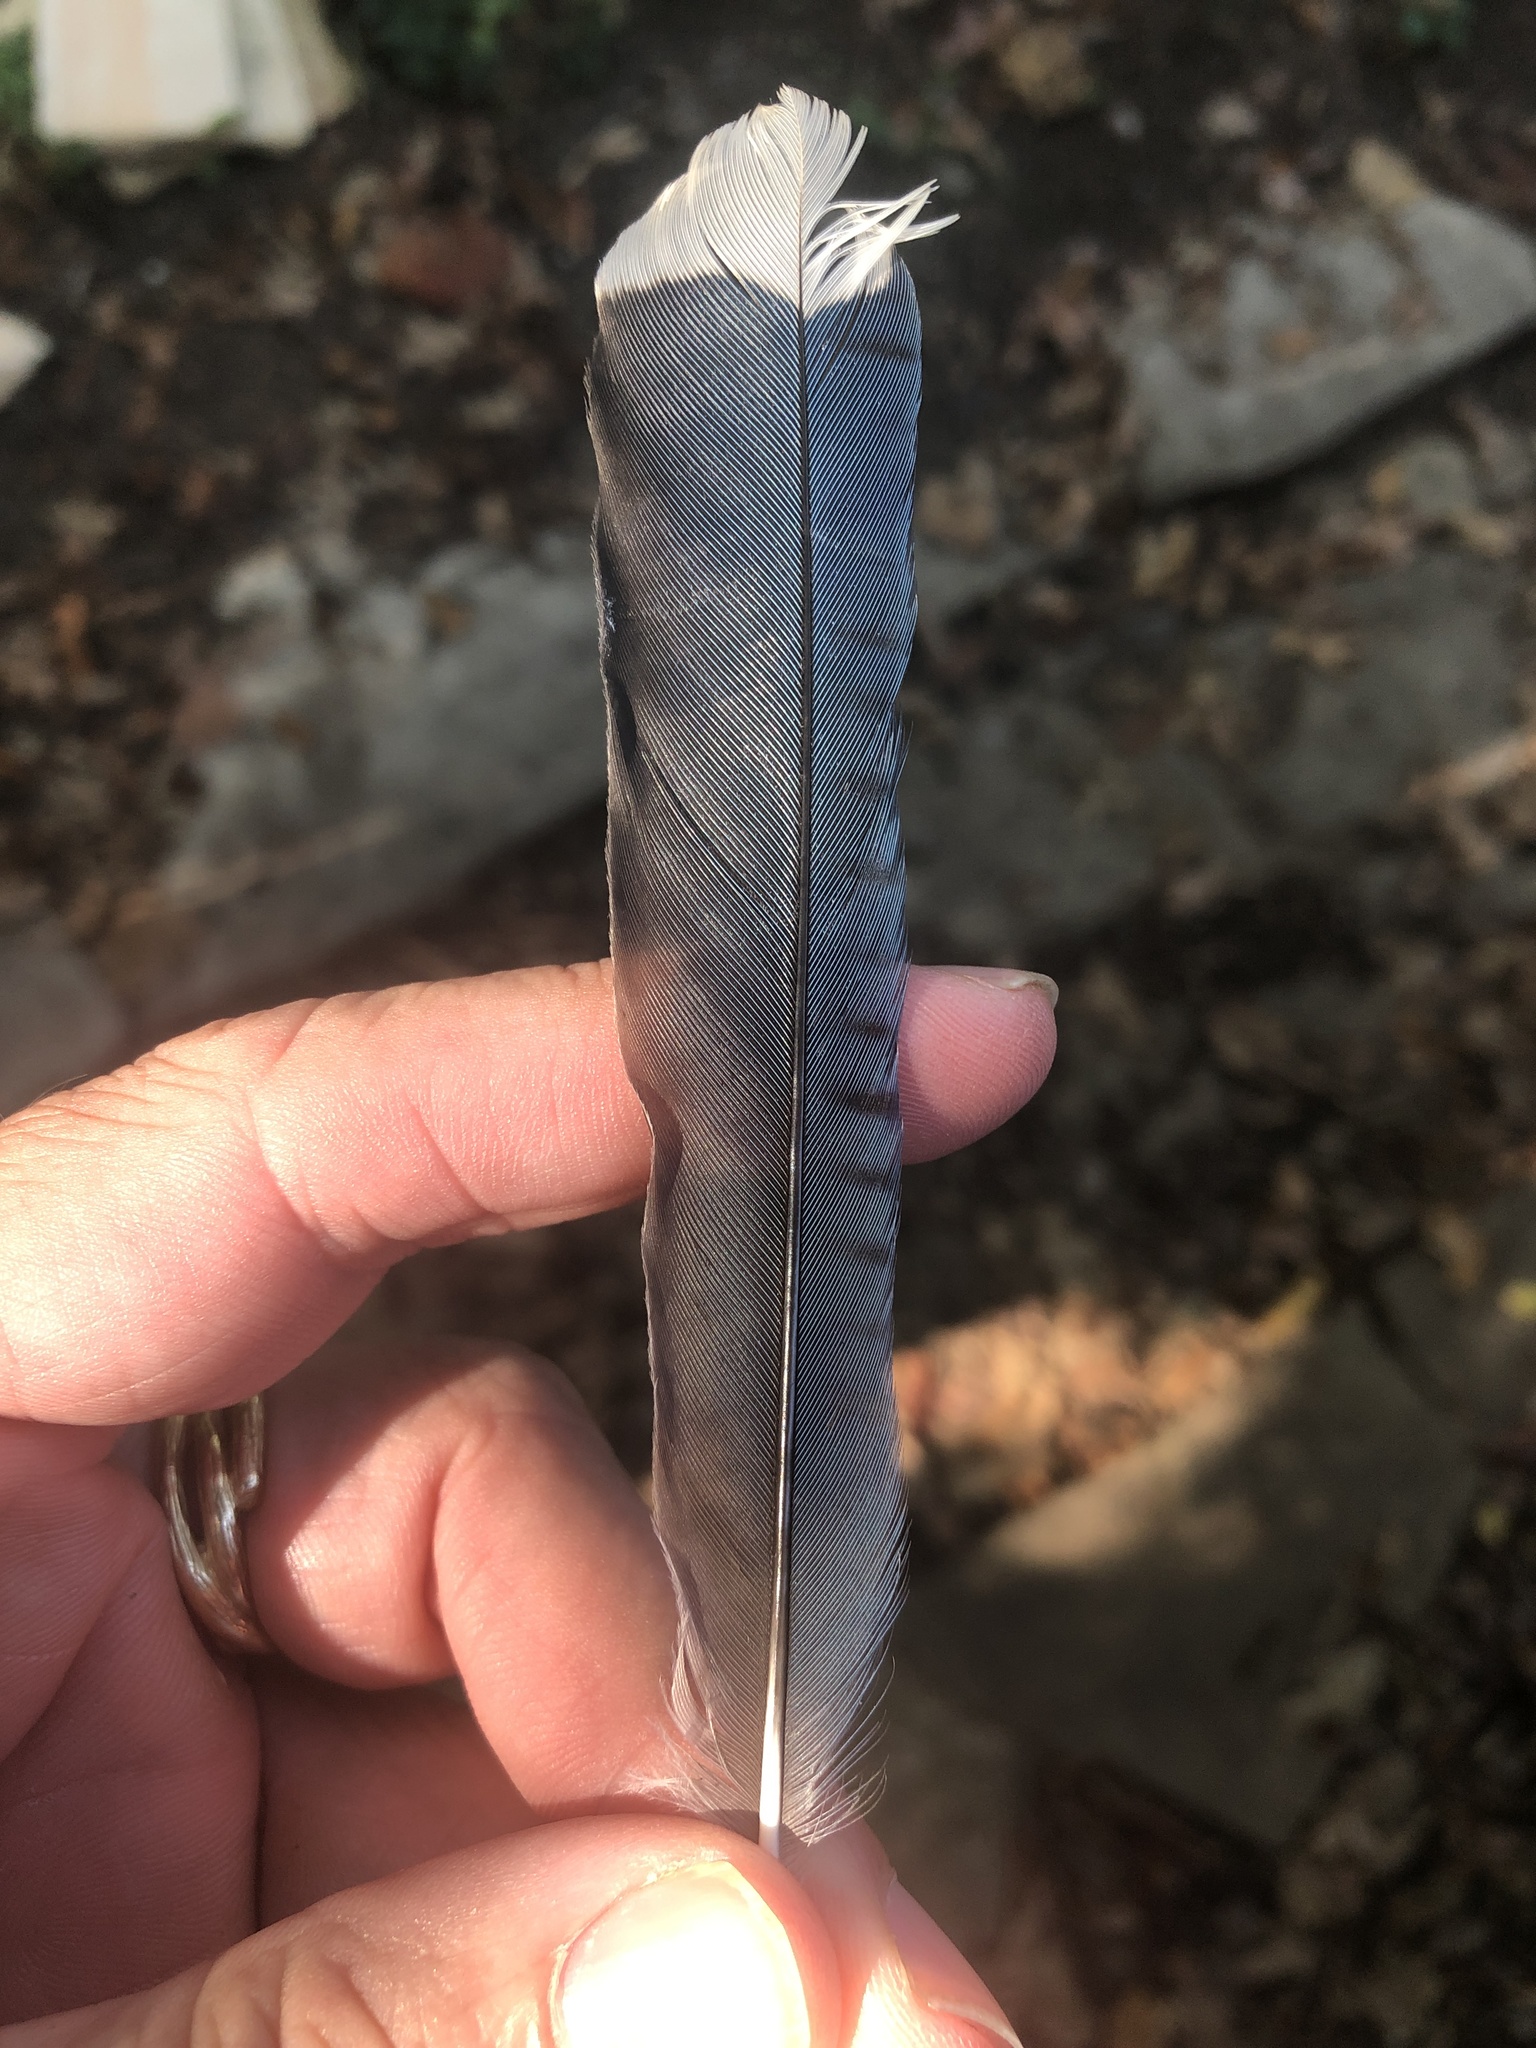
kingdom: Animalia
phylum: Chordata
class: Aves
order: Passeriformes
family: Corvidae
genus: Cyanocitta
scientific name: Cyanocitta cristata
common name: Blue jay
